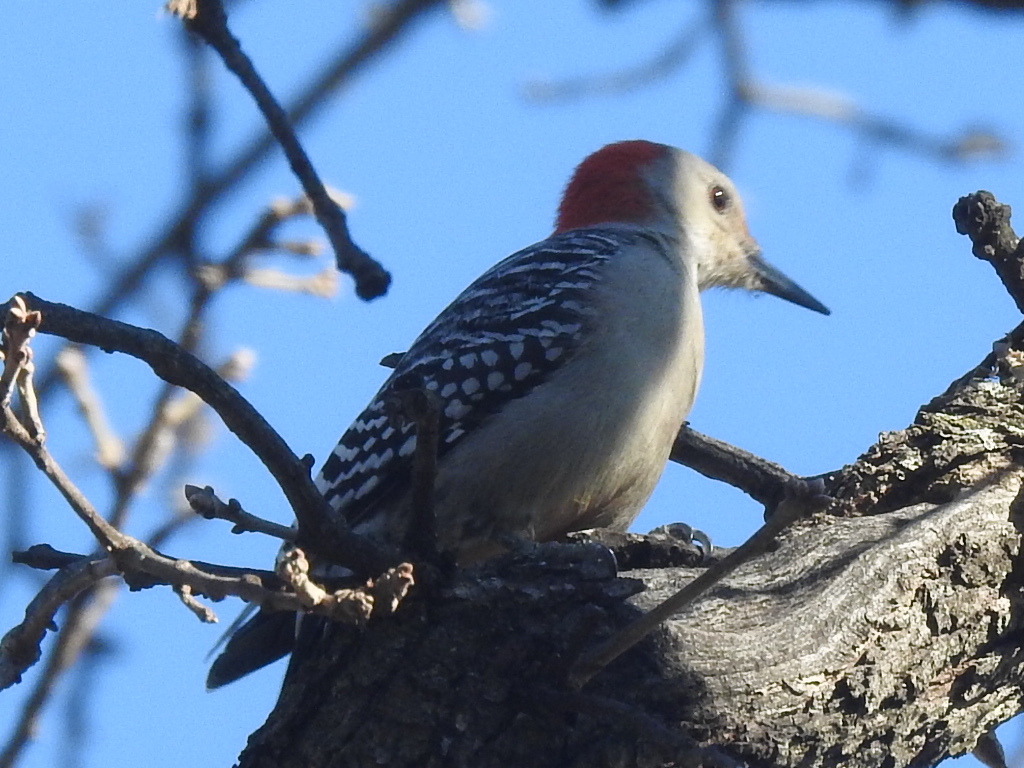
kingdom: Animalia
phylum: Chordata
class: Aves
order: Piciformes
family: Picidae
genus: Melanerpes
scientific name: Melanerpes carolinus
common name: Red-bellied woodpecker
